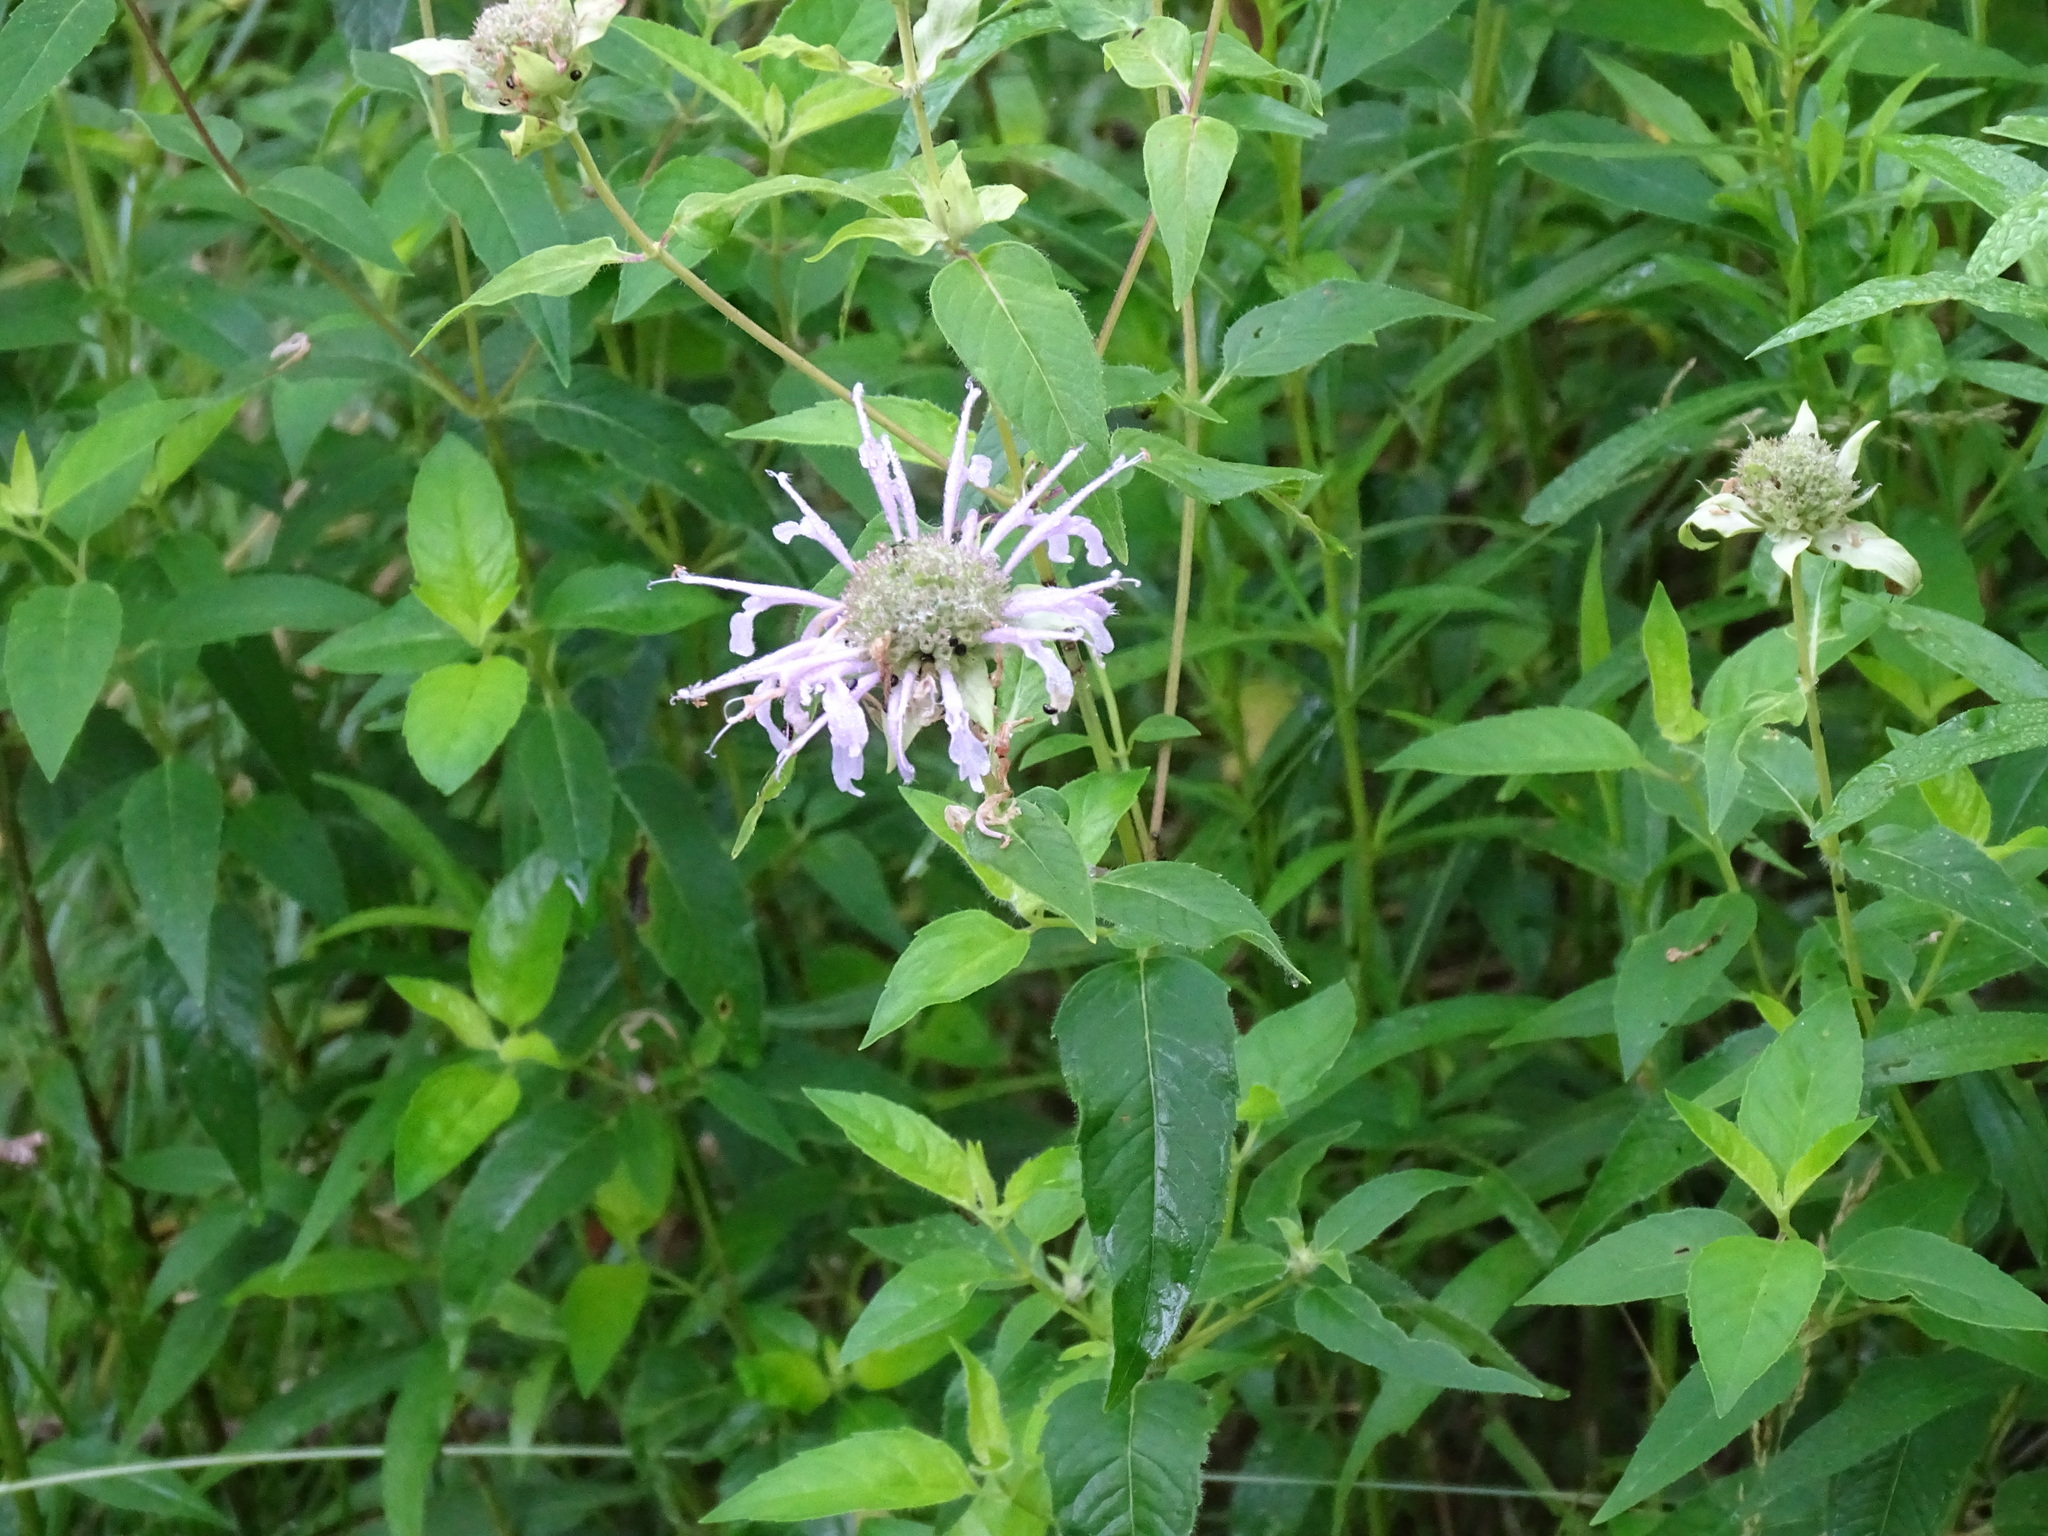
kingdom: Plantae
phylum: Tracheophyta
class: Magnoliopsida
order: Lamiales
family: Lamiaceae
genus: Monarda
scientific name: Monarda fistulosa
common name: Purple beebalm
